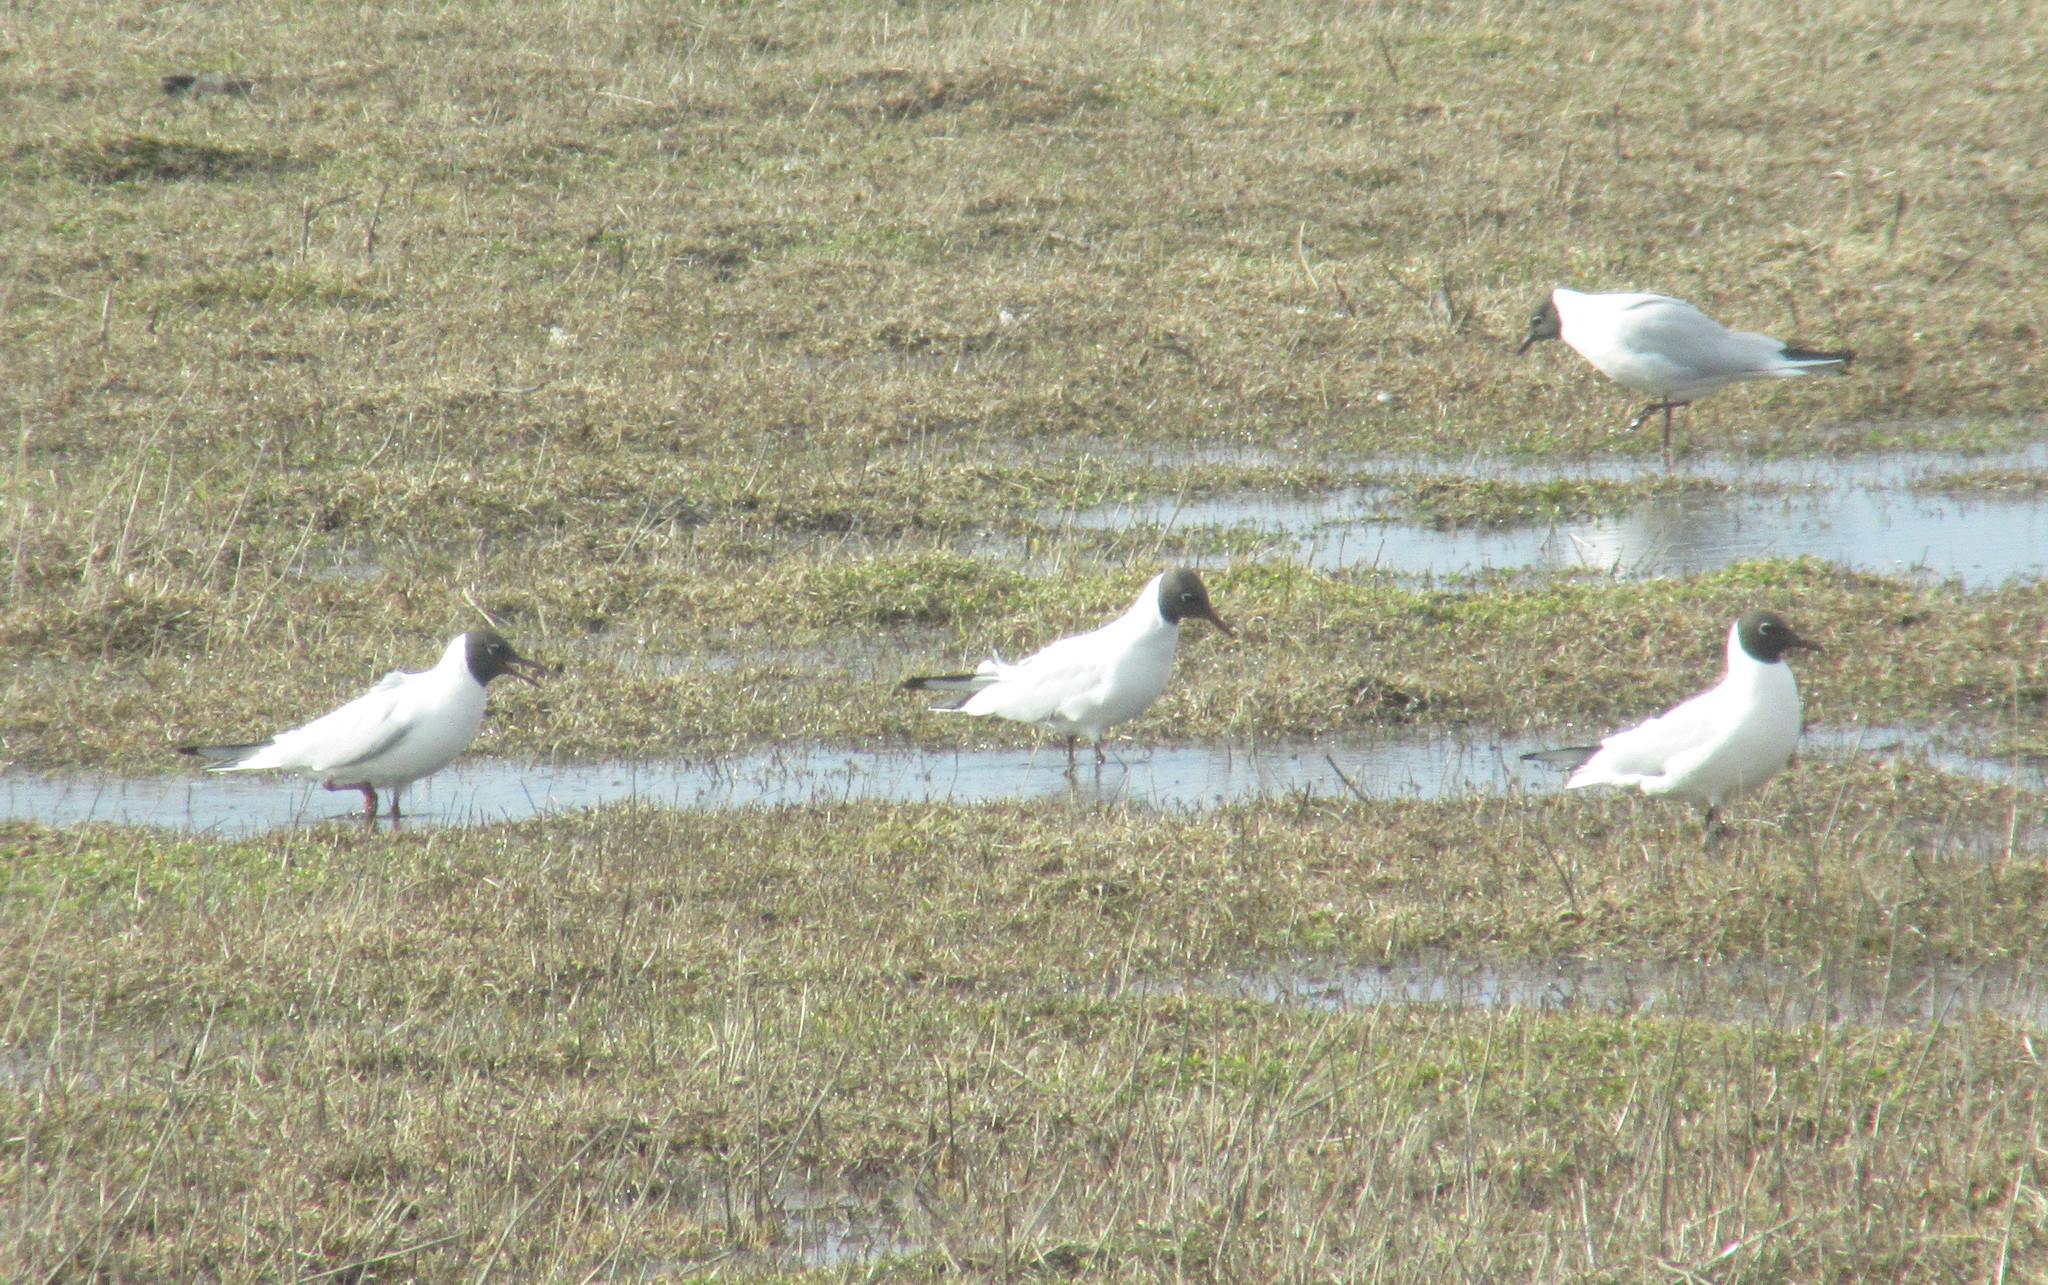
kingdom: Animalia
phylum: Chordata
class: Aves
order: Charadriiformes
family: Laridae
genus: Chroicocephalus
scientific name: Chroicocephalus ridibundus
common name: Black-headed gull
